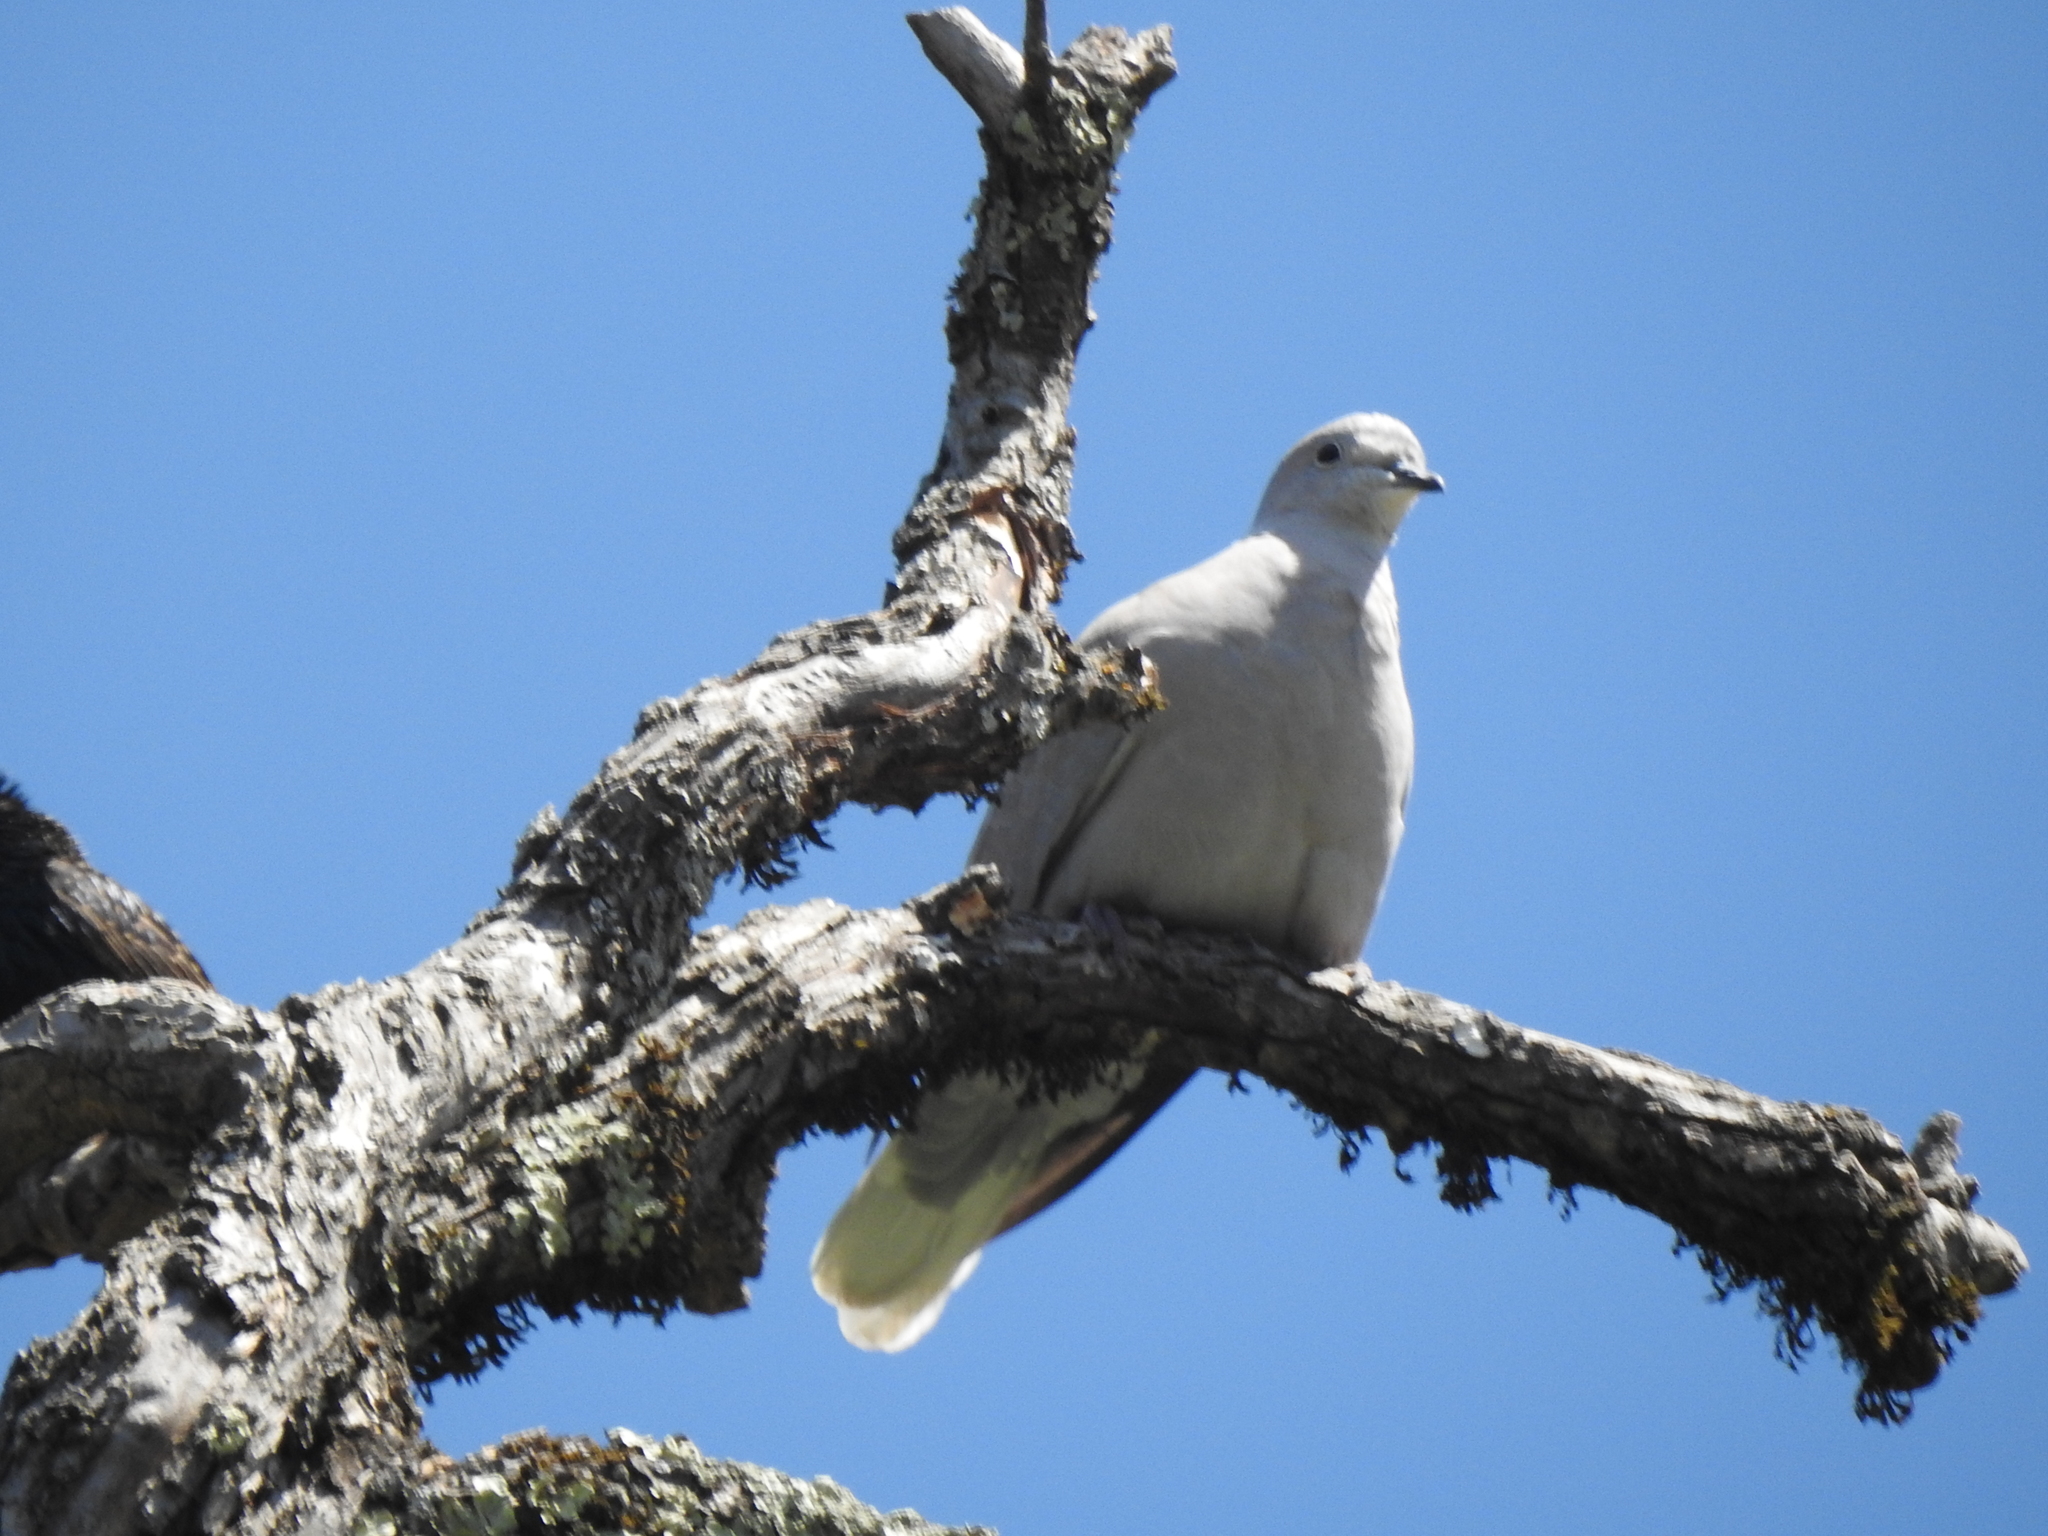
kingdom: Animalia
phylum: Chordata
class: Aves
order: Columbiformes
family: Columbidae
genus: Streptopelia
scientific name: Streptopelia decaocto
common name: Eurasian collared dove
